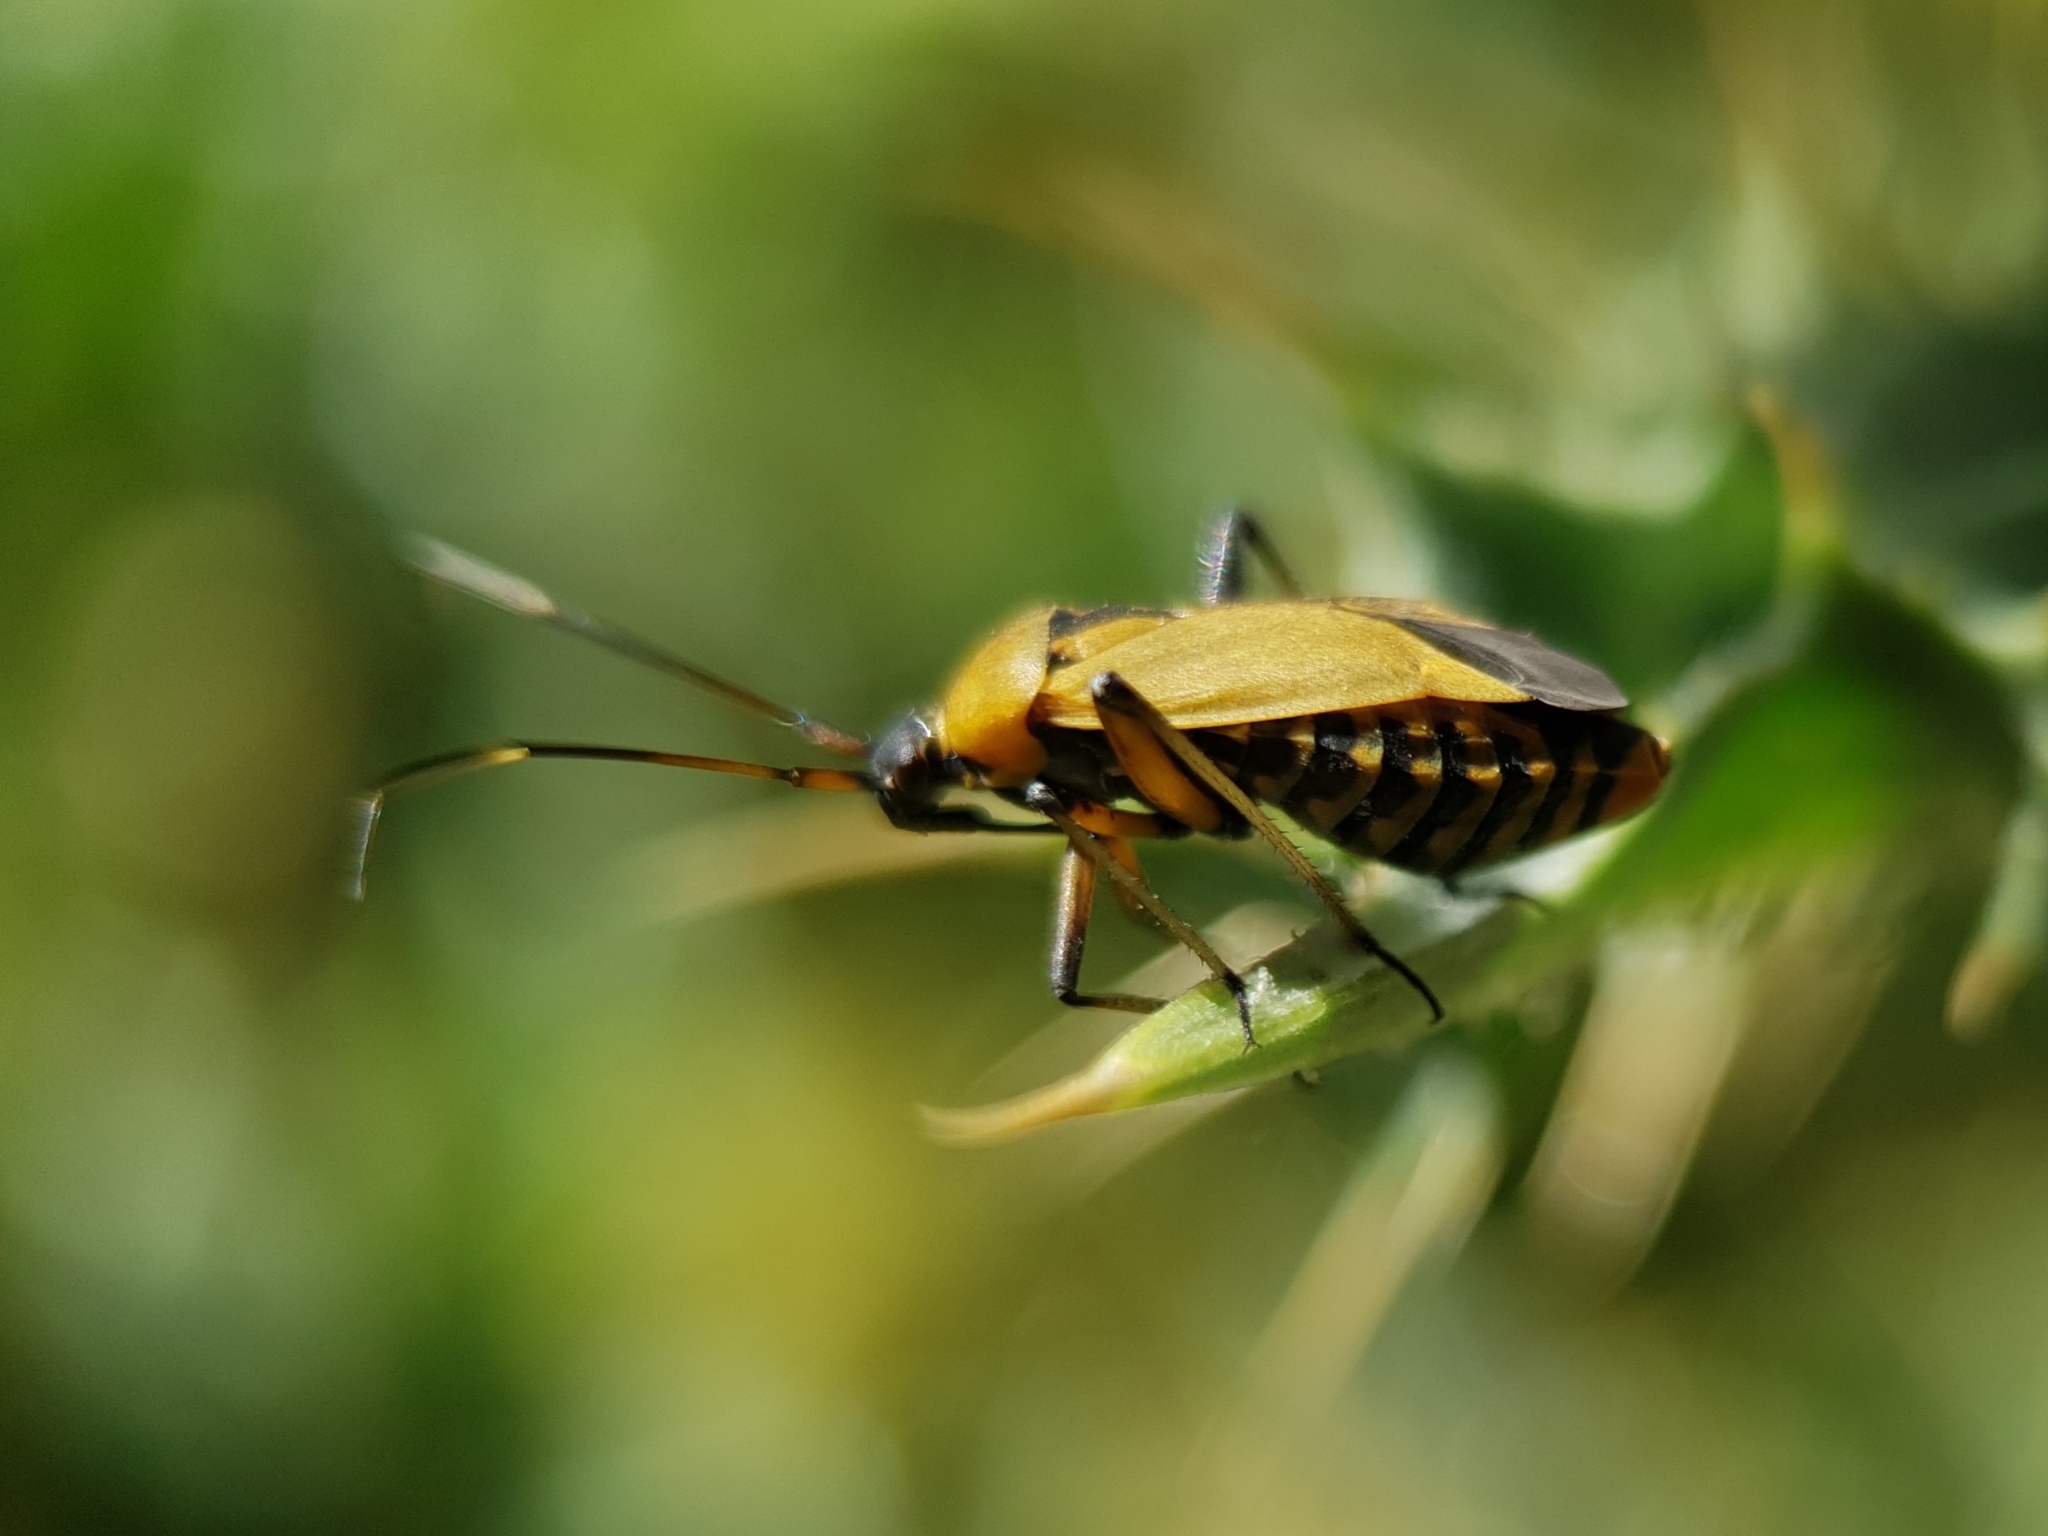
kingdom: Animalia
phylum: Arthropoda
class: Insecta
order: Hemiptera
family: Miridae
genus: Calocoris
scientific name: Calocoris nemoralis
